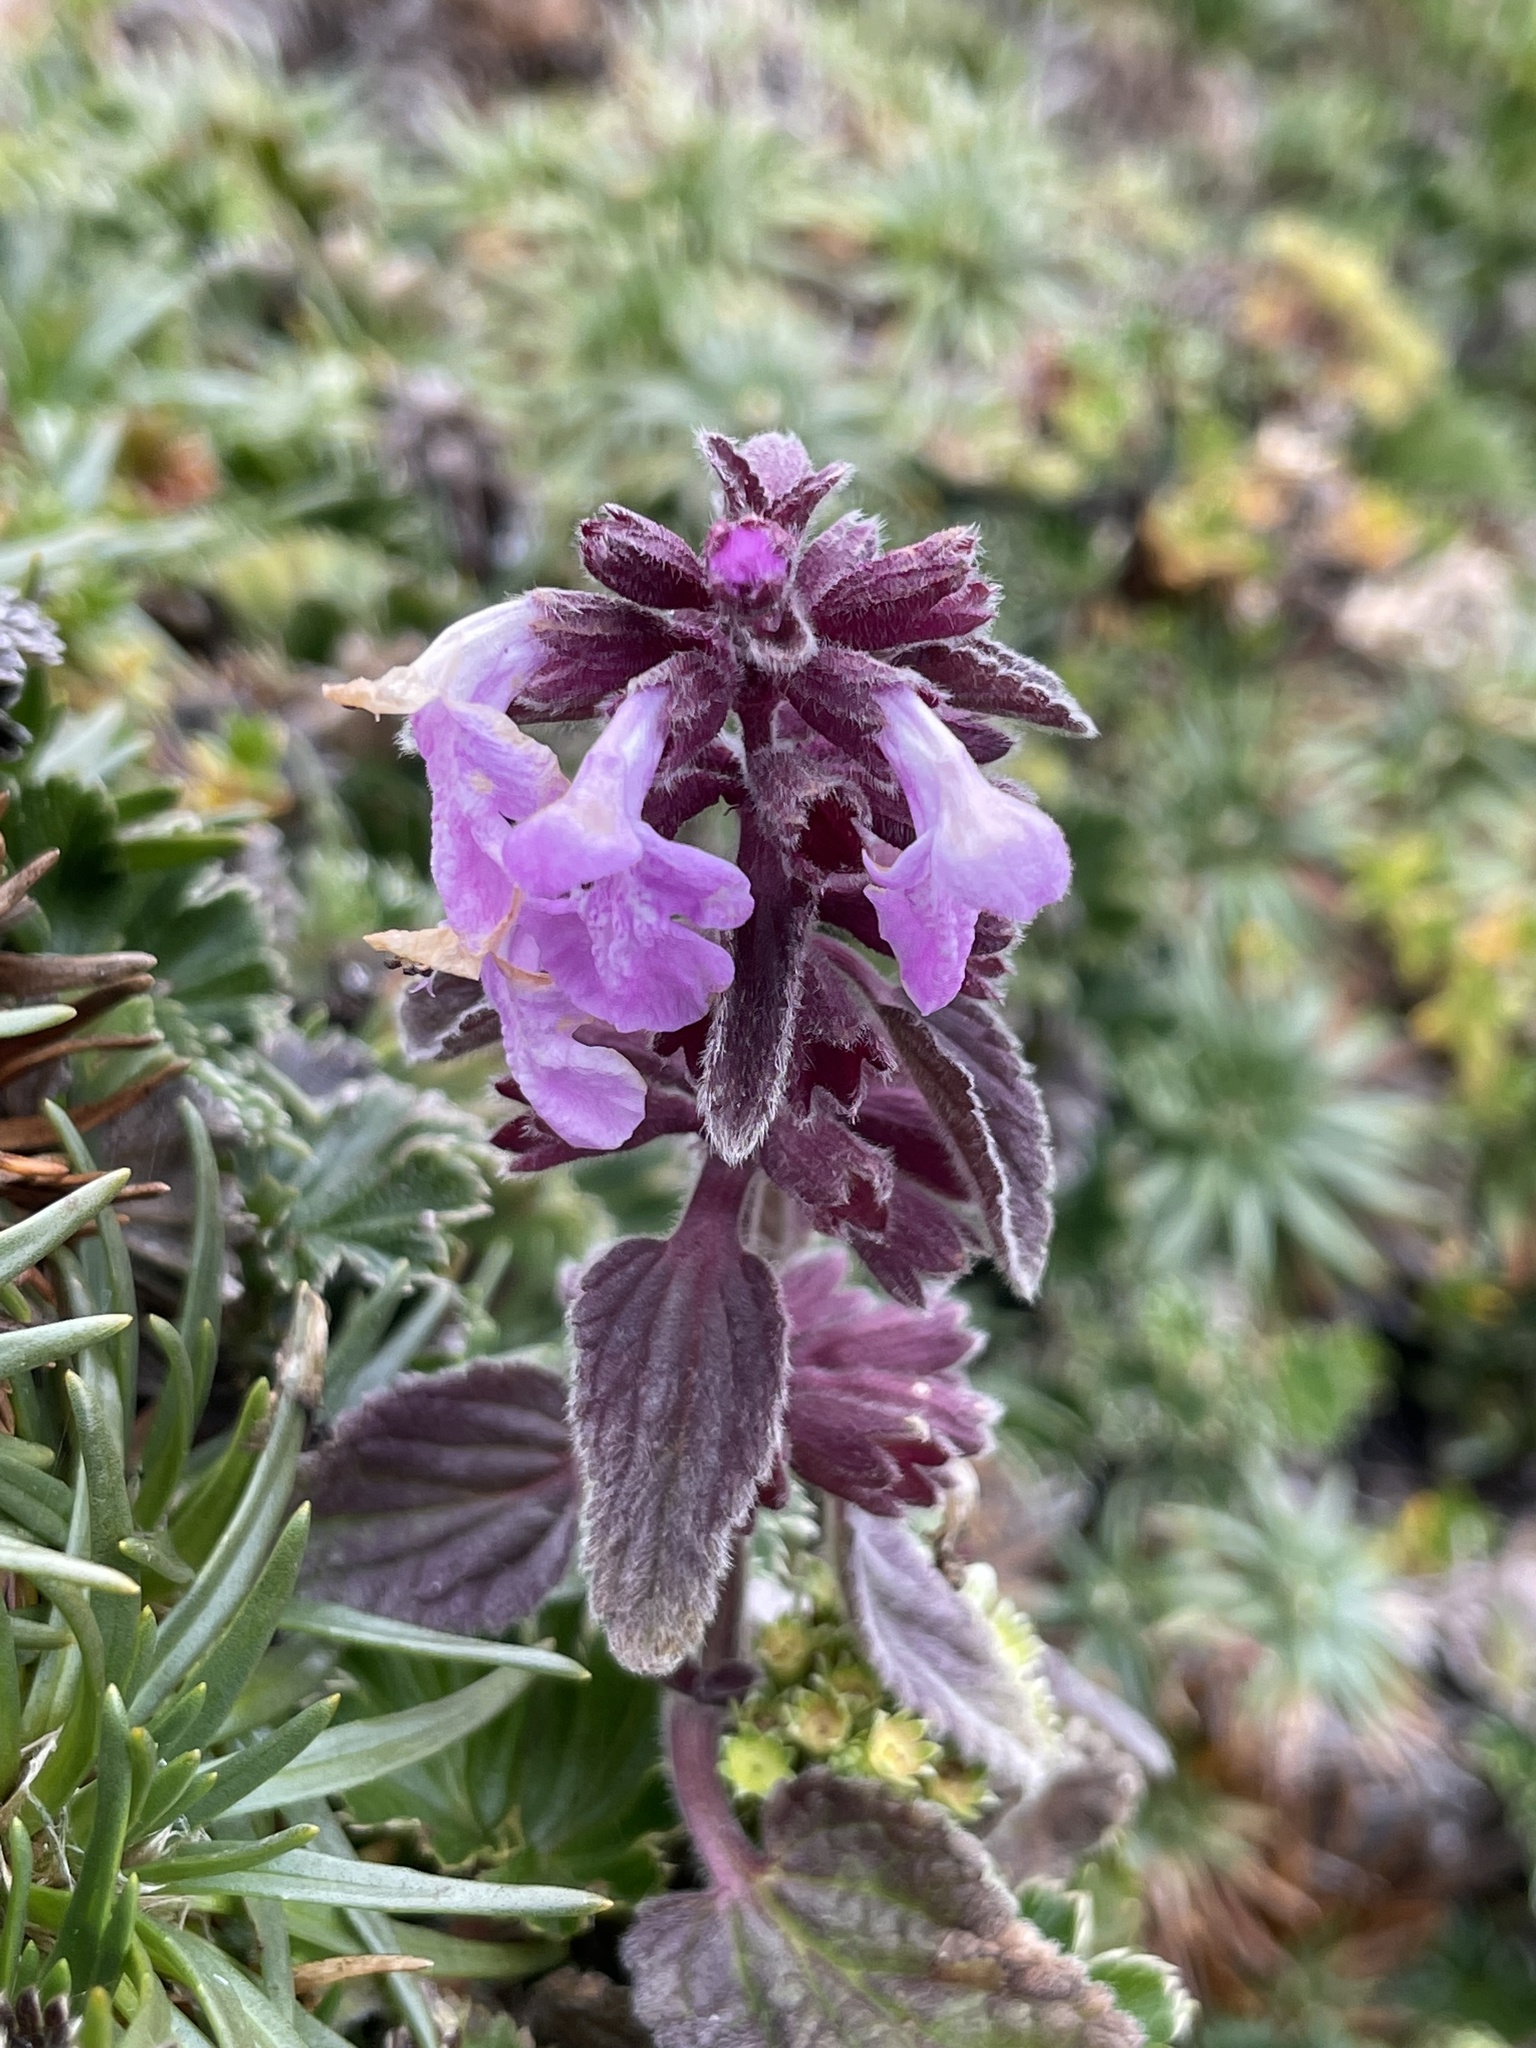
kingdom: Plantae
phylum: Tracheophyta
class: Magnoliopsida
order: Lamiales
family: Lamiaceae
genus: Stachys
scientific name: Stachys elliptica
